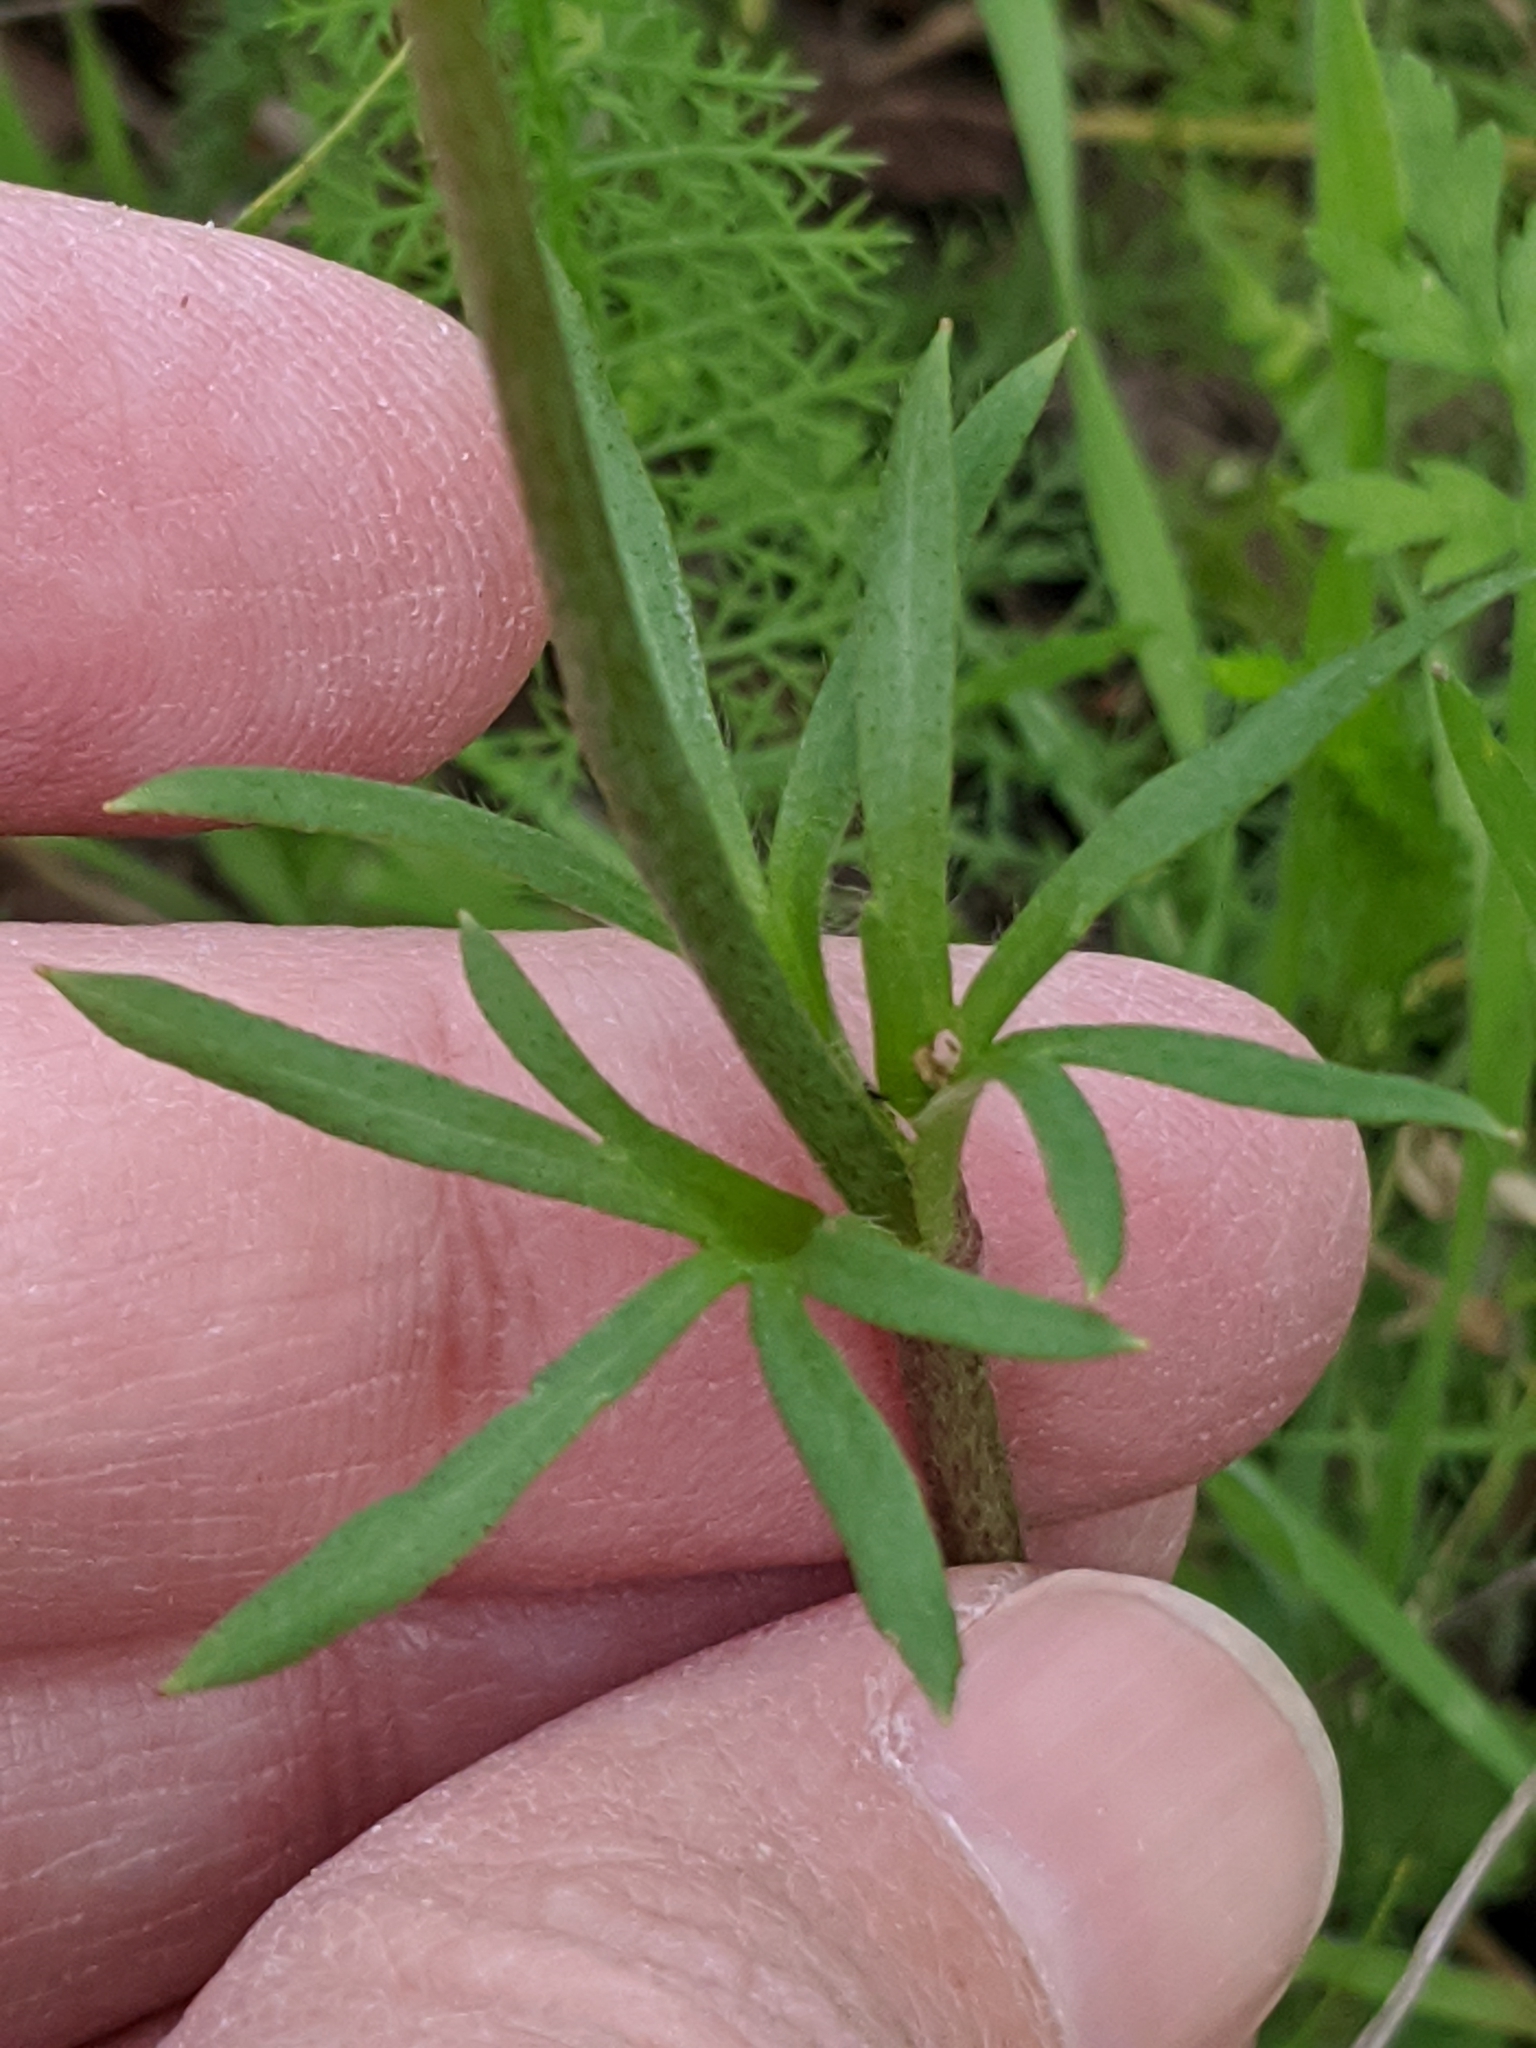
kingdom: Plantae
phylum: Tracheophyta
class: Magnoliopsida
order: Ranunculales
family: Ranunculaceae
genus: Anemone
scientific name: Anemone berlandieri
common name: Ten-petal anemone
